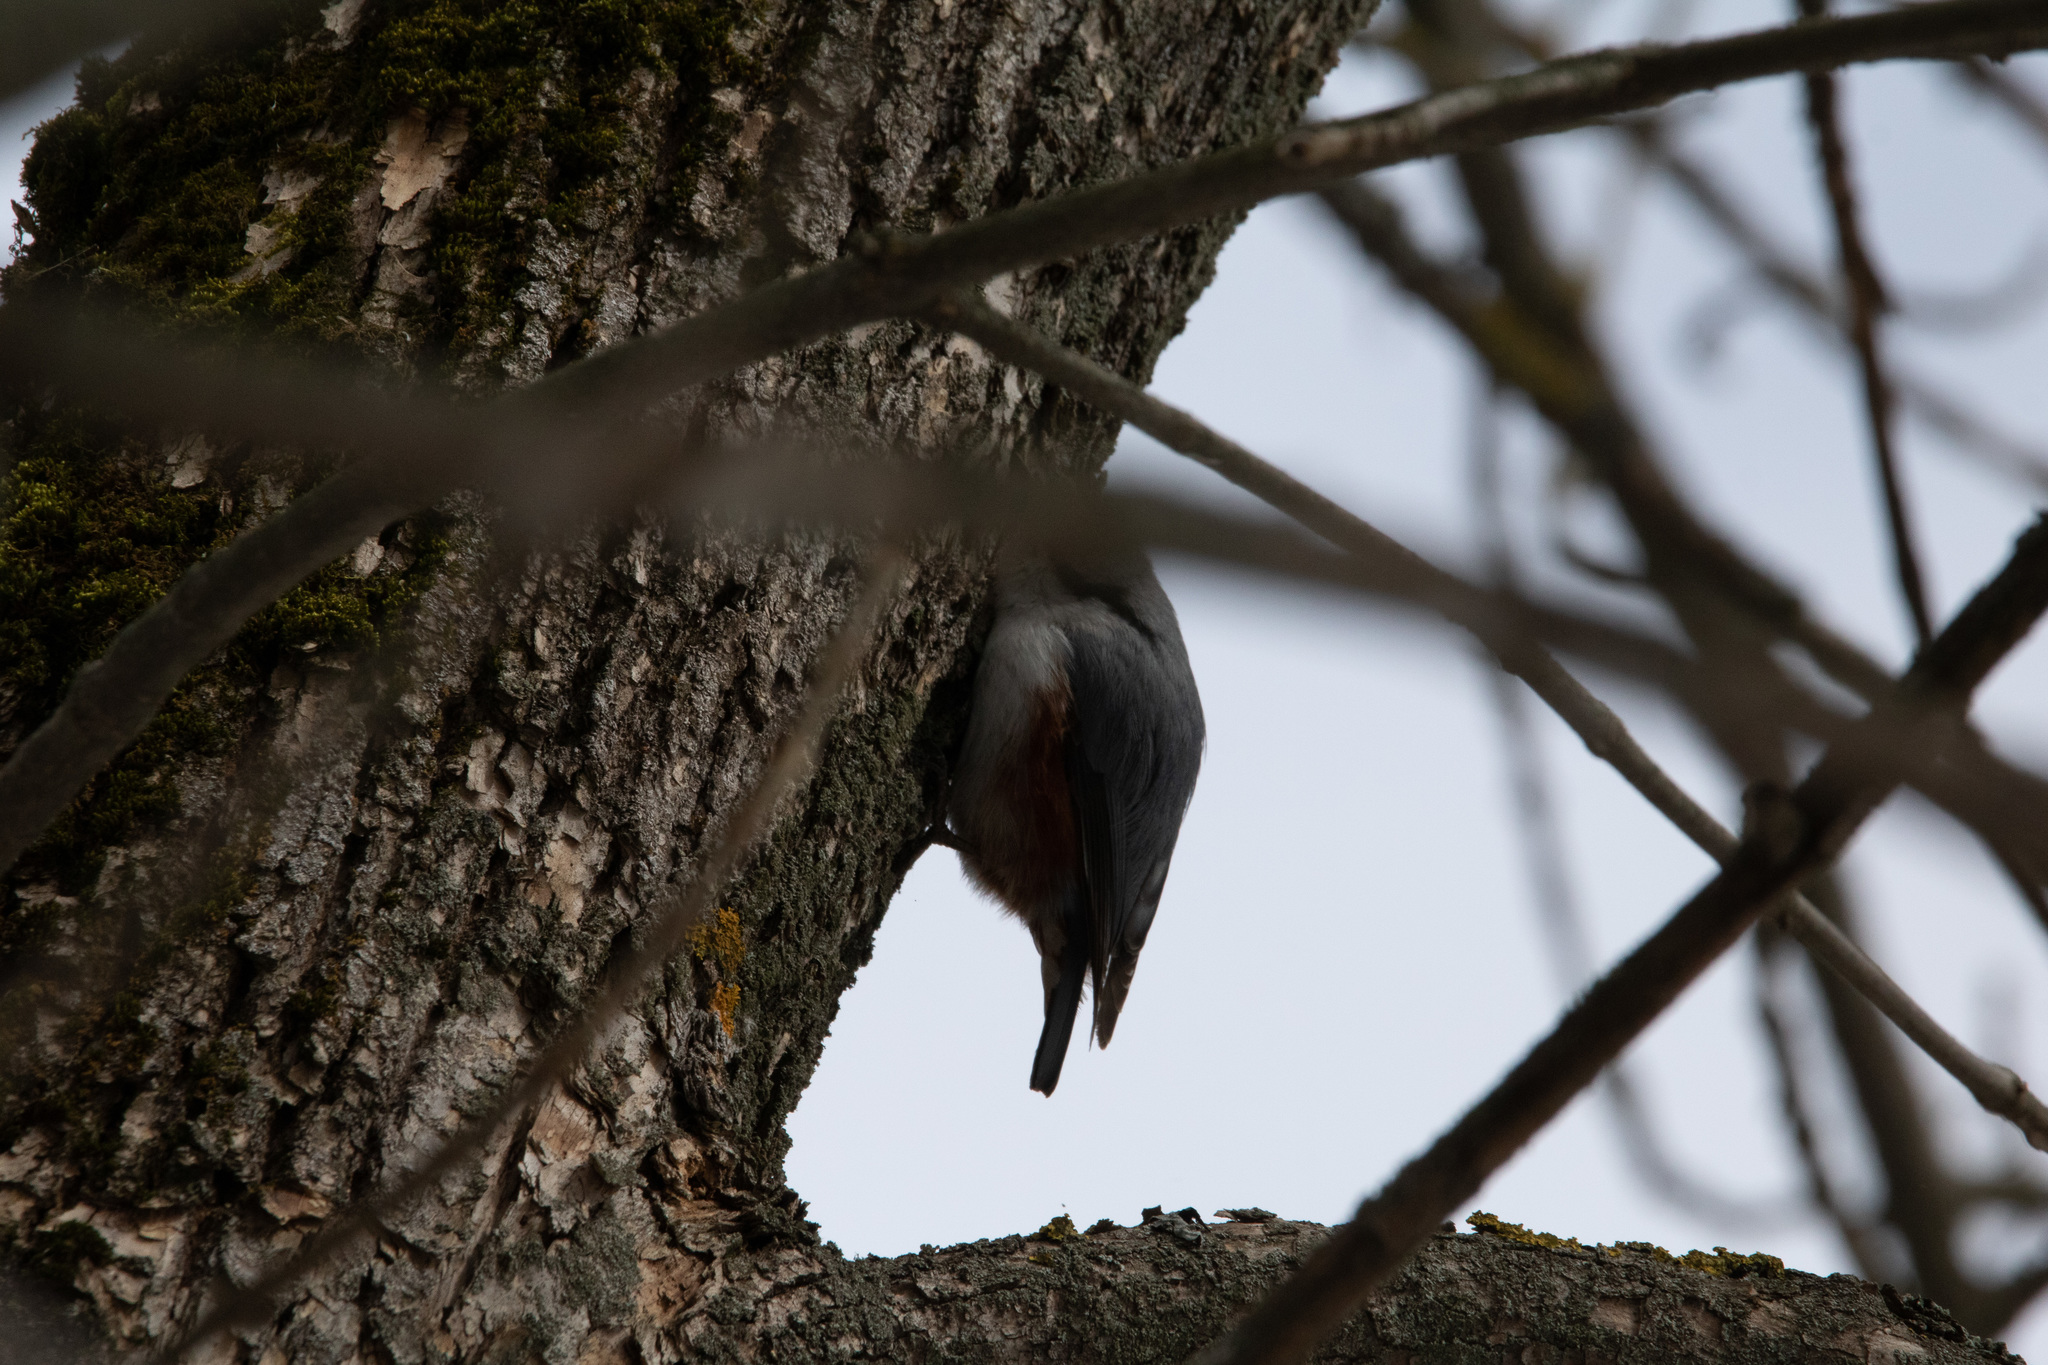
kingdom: Animalia
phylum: Chordata
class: Aves
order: Passeriformes
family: Sittidae
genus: Sitta
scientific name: Sitta europaea
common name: Eurasian nuthatch
